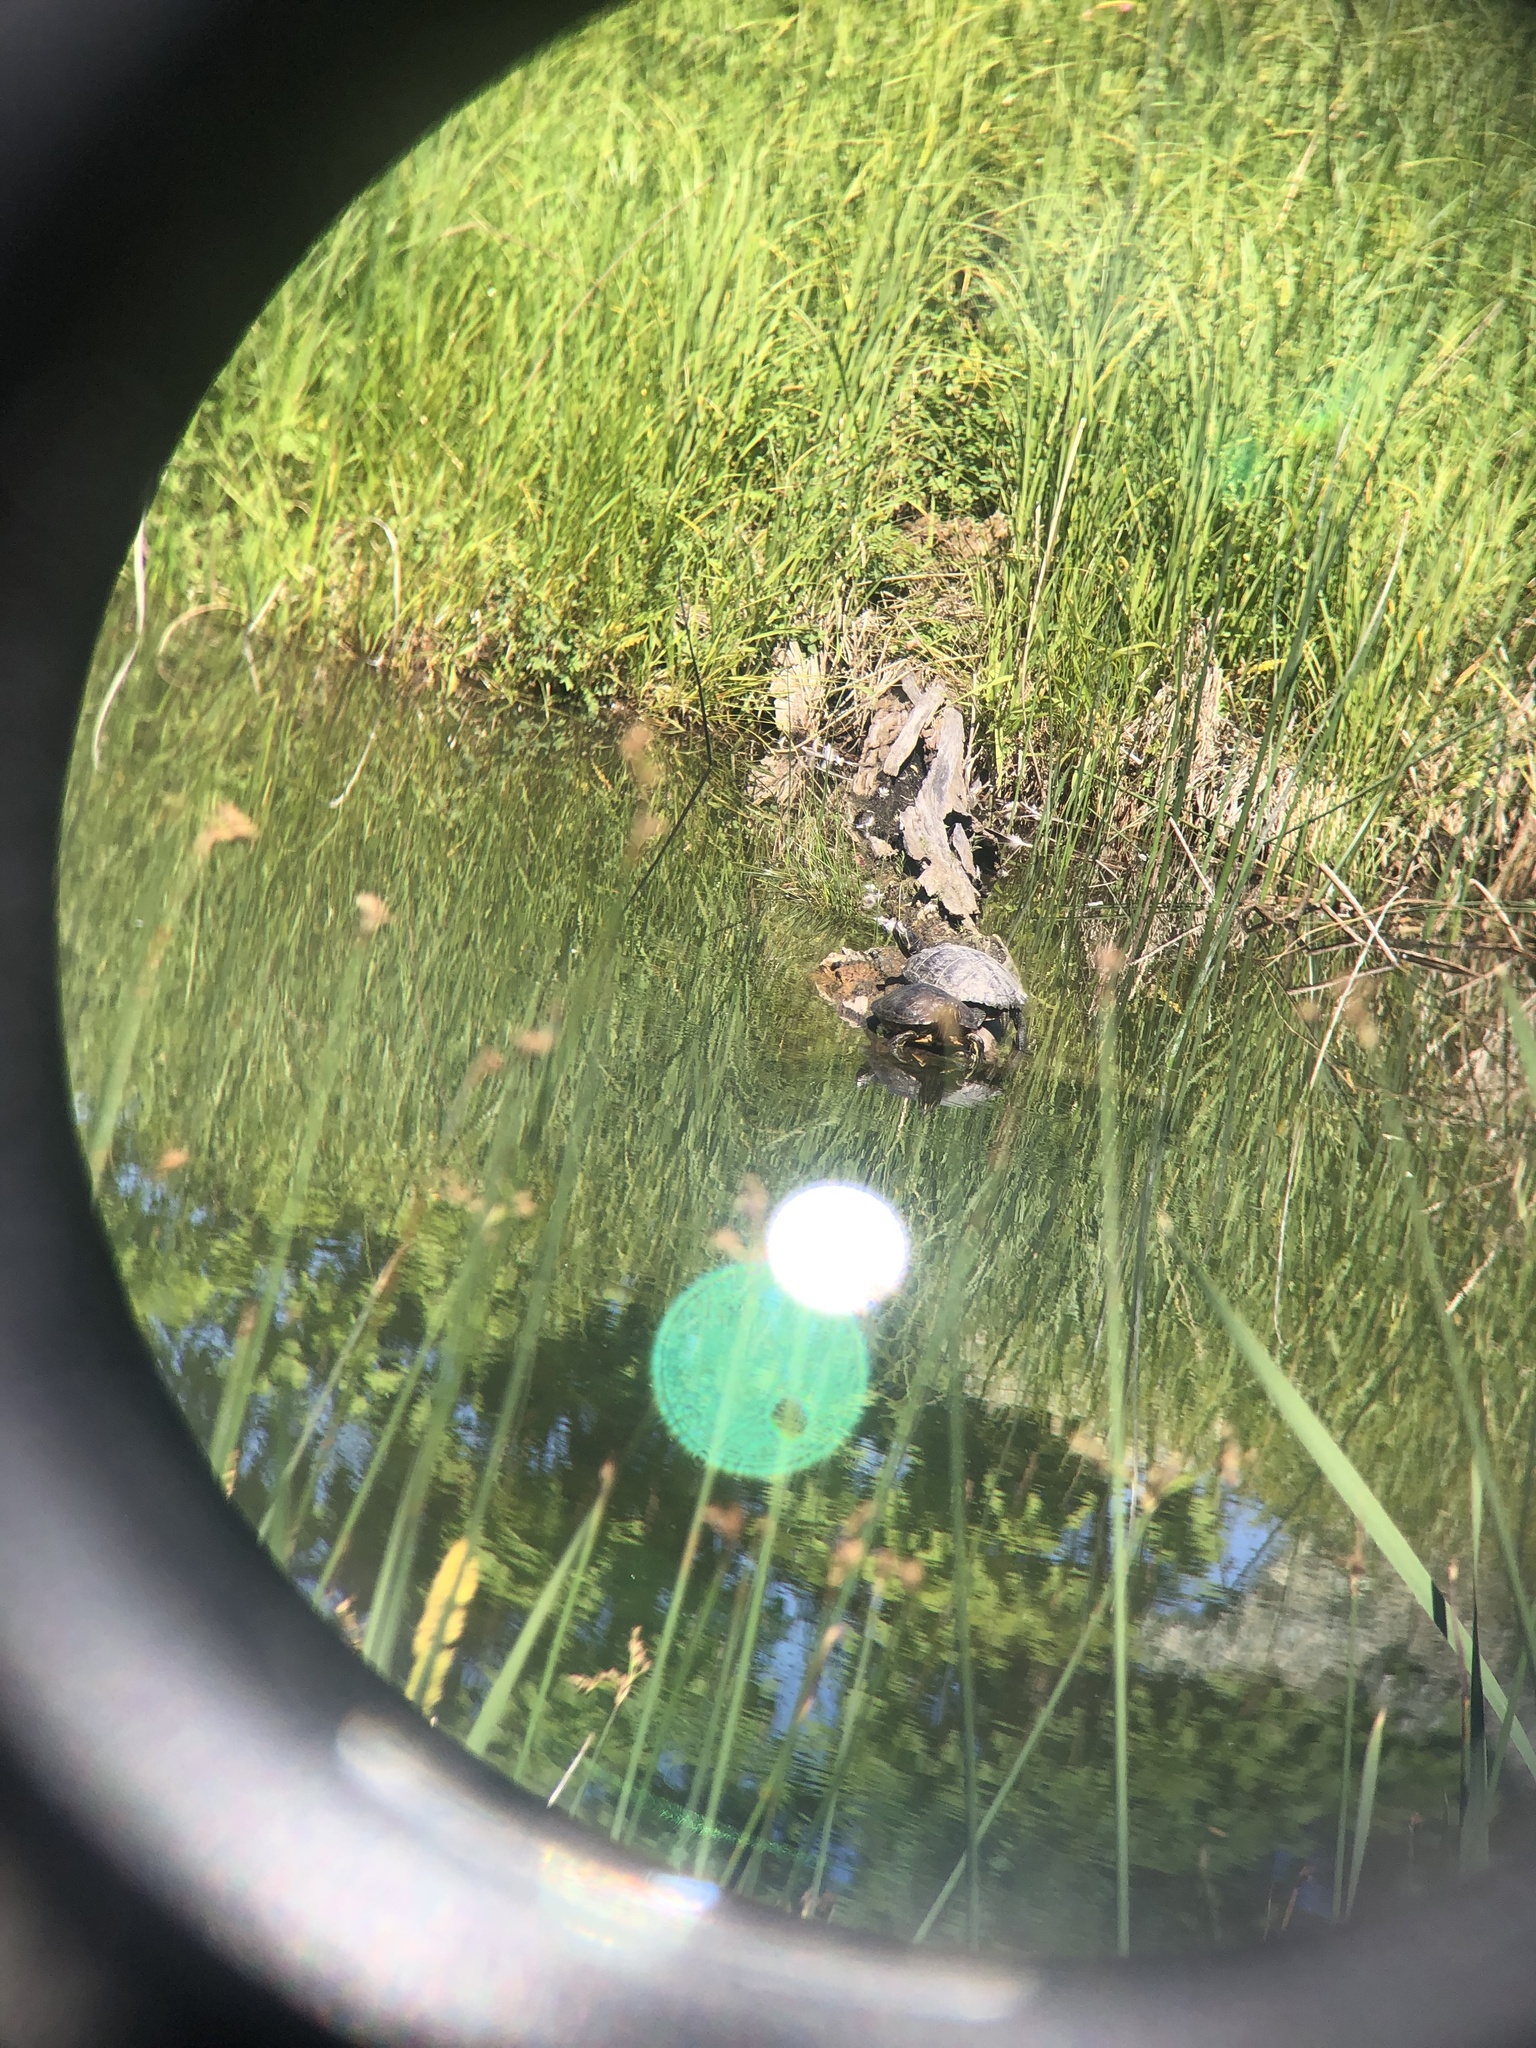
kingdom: Animalia
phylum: Chordata
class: Testudines
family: Emydidae
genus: Trachemys
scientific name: Trachemys scripta
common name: Slider
